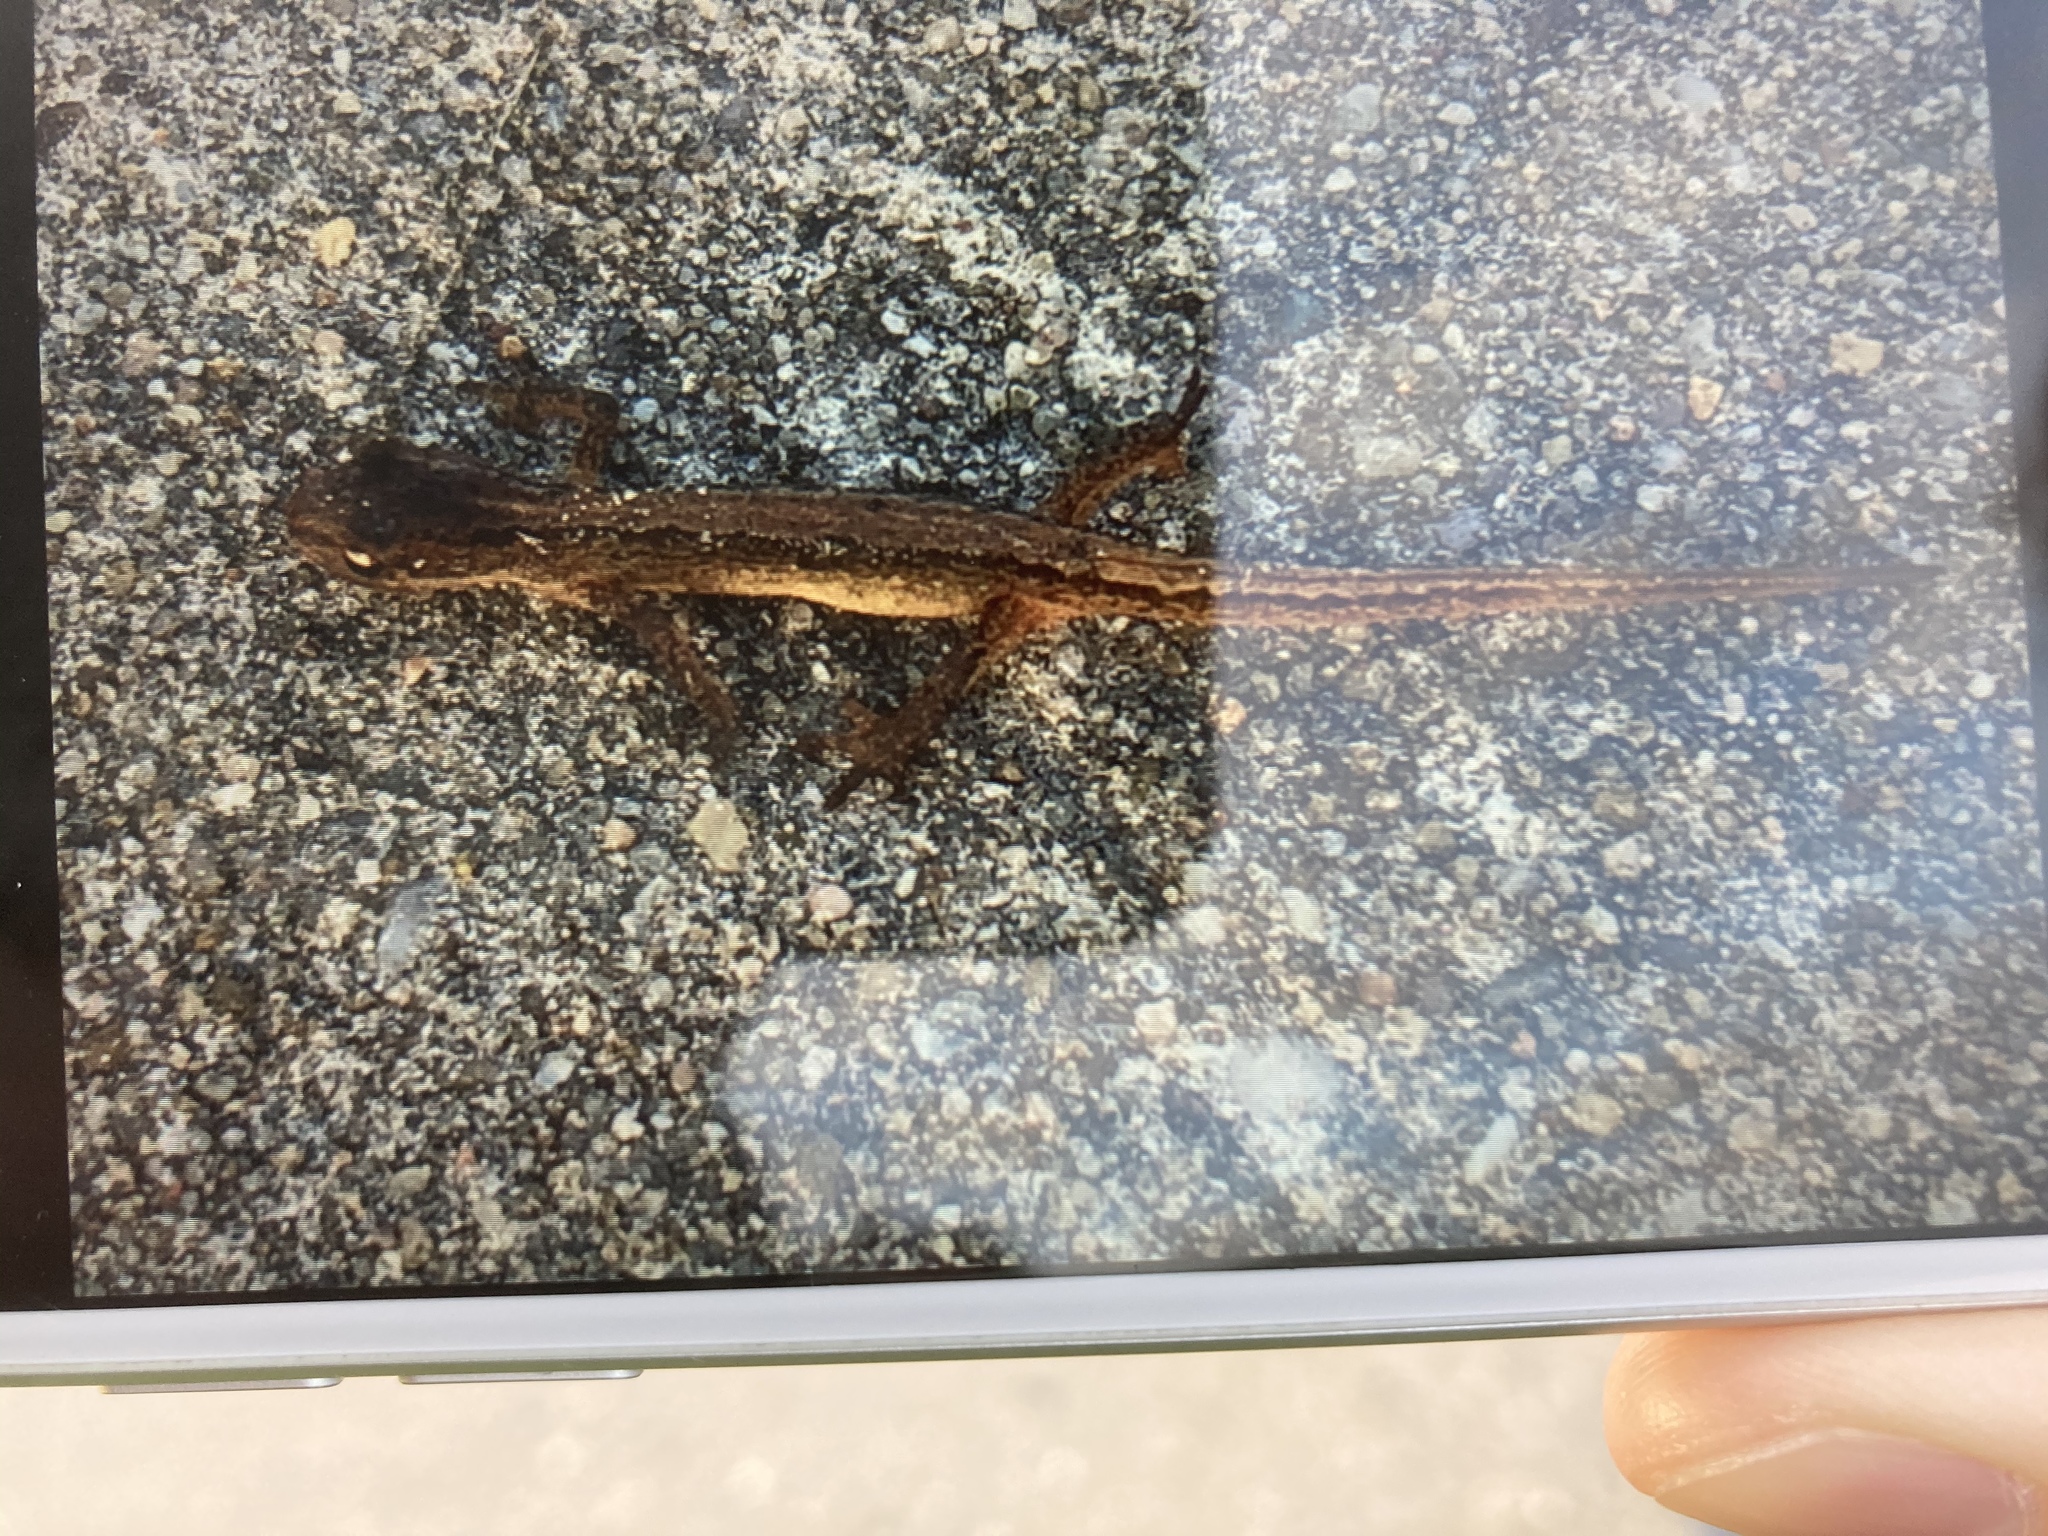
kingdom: Animalia
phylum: Chordata
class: Amphibia
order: Caudata
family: Salamandridae
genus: Lissotriton
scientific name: Lissotriton vulgaris
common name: Smooth newt
